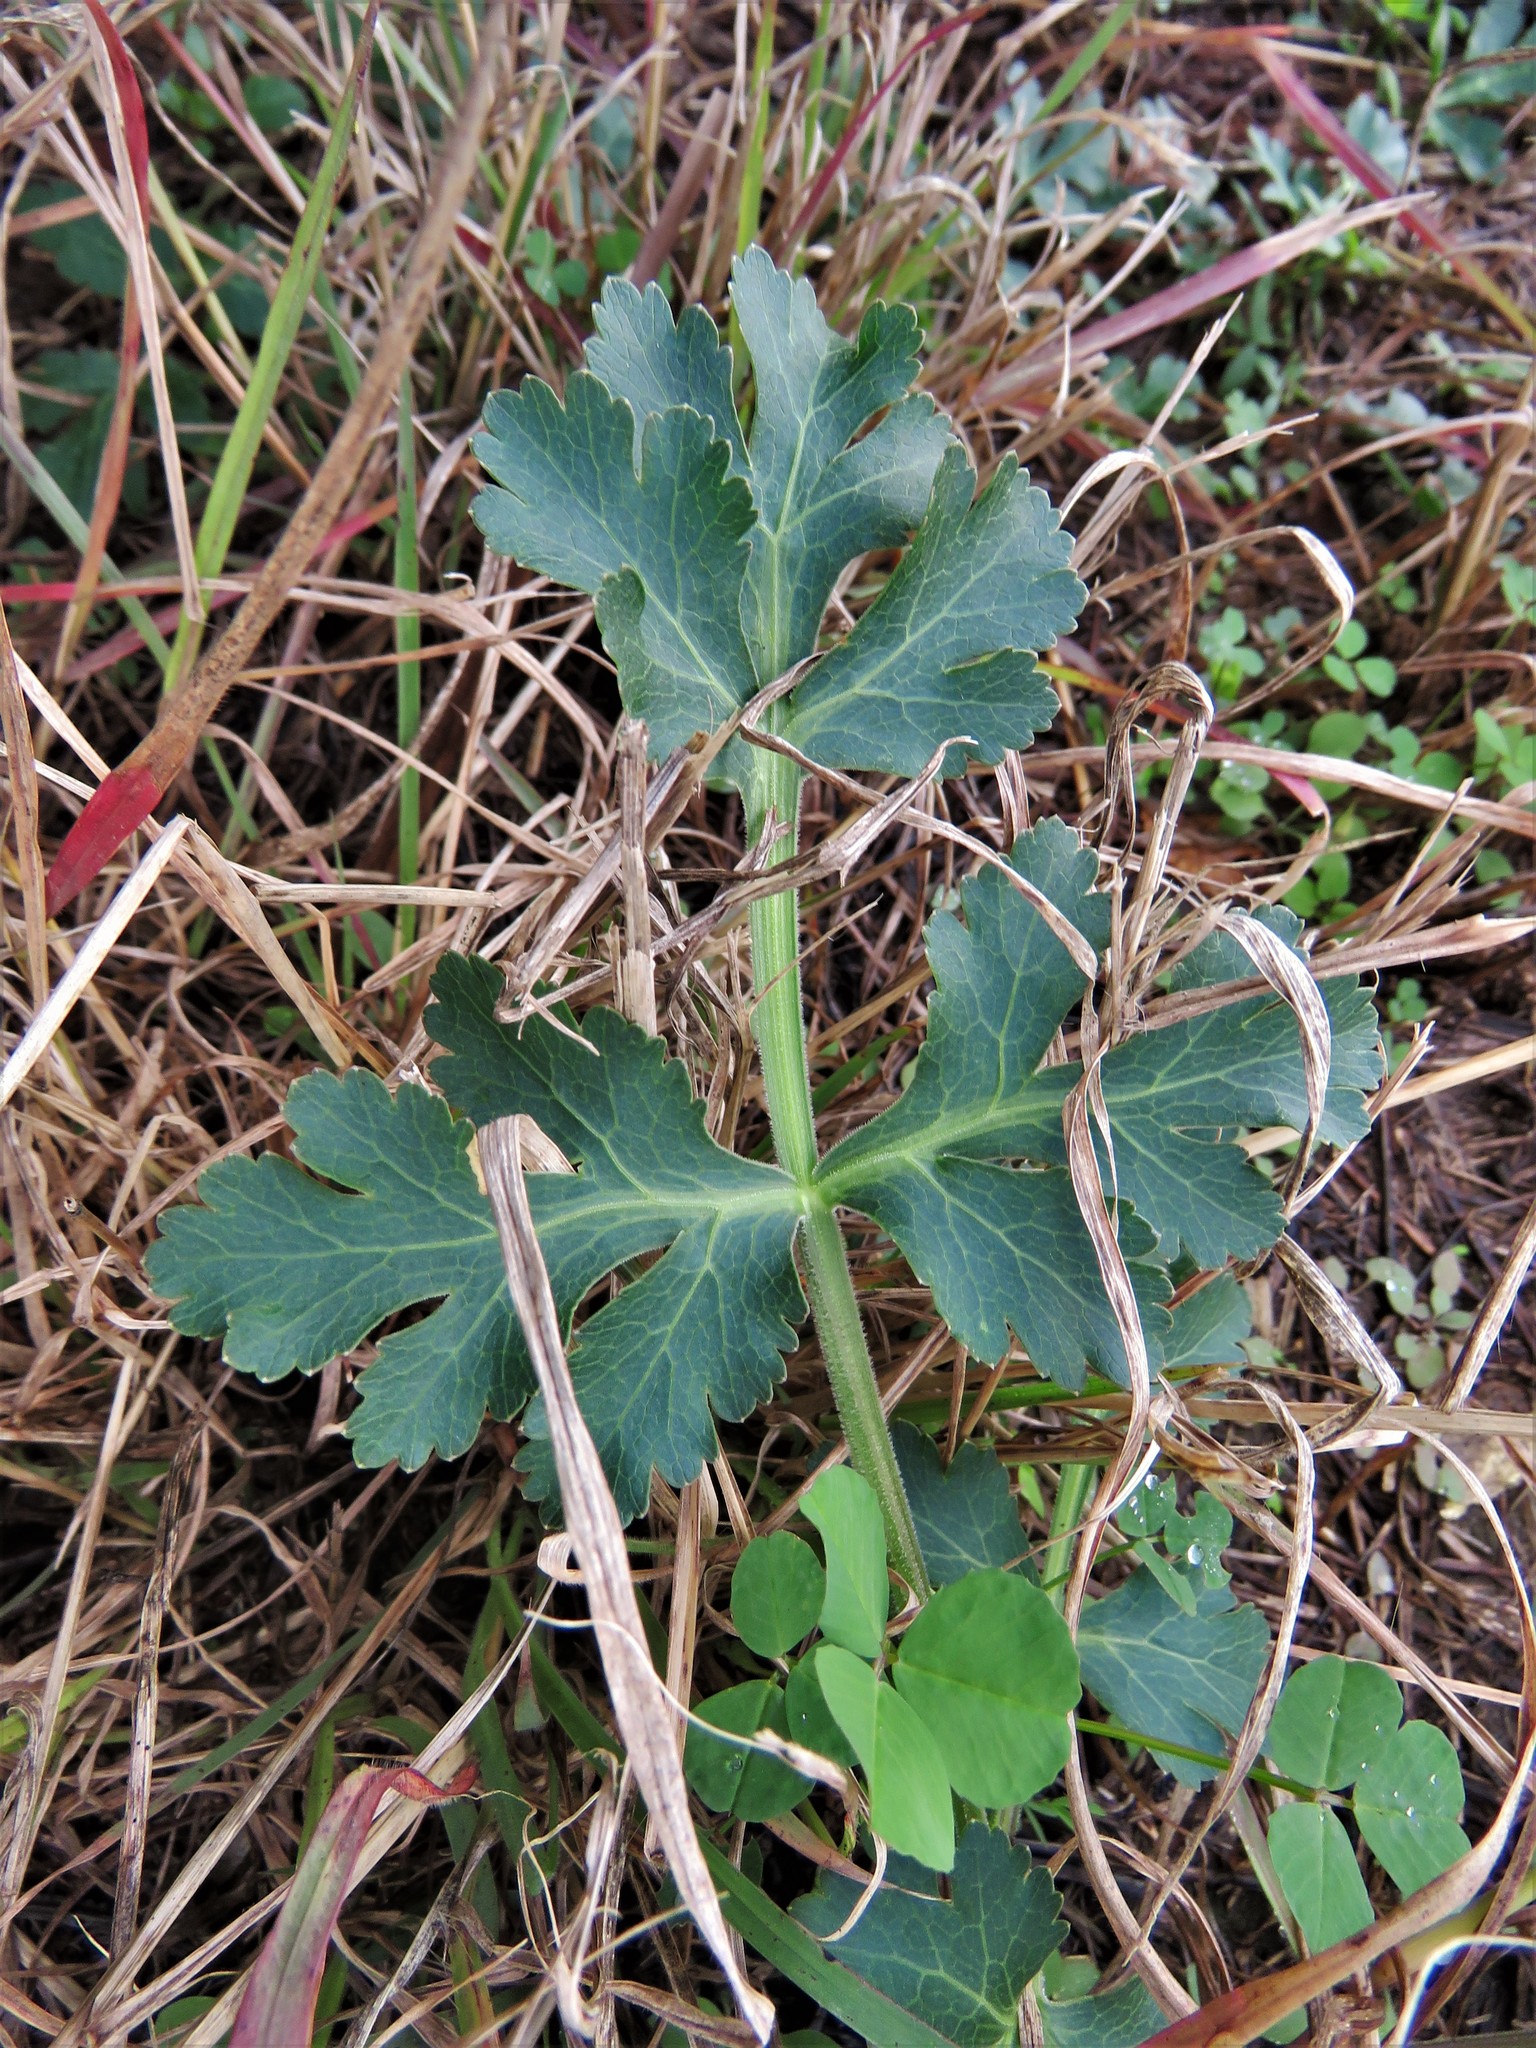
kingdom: Plantae
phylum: Tracheophyta
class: Magnoliopsida
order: Apiales
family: Apiaceae
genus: Polytaenia
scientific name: Polytaenia texana
